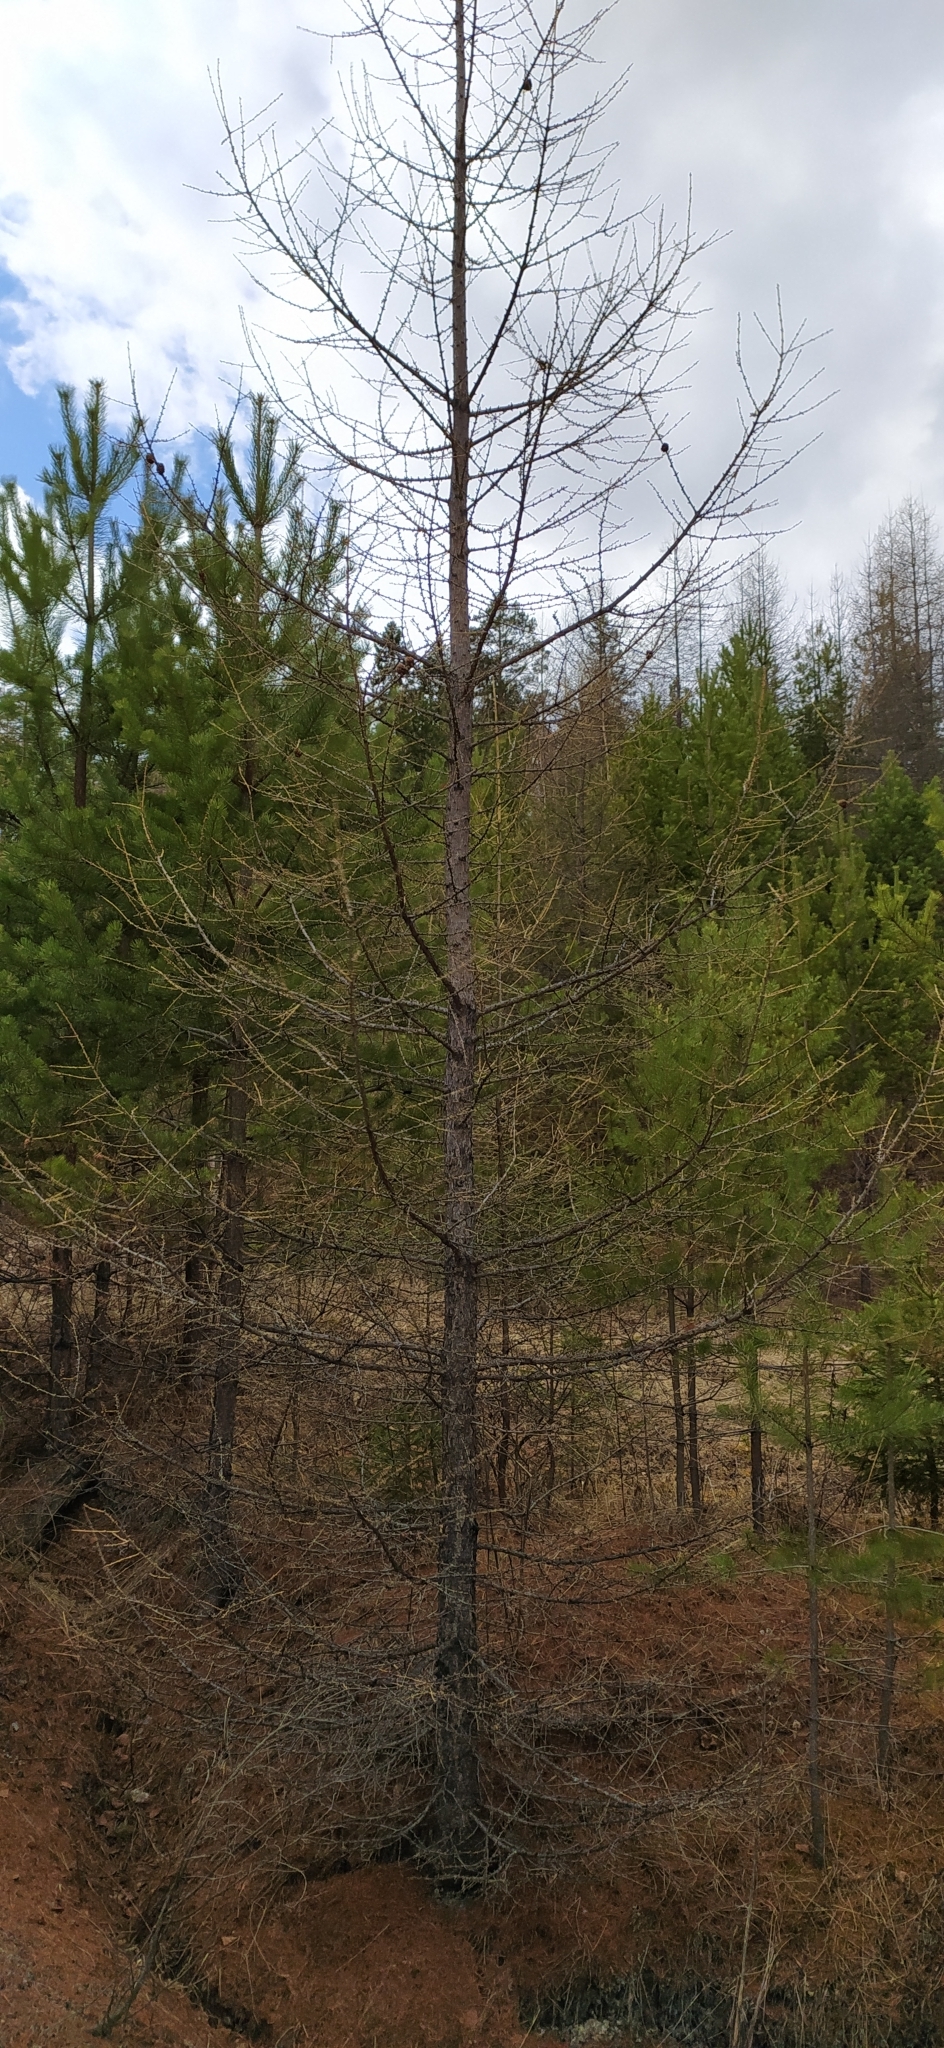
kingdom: Plantae
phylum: Tracheophyta
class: Pinopsida
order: Pinales
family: Pinaceae
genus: Larix
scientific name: Larix sibirica
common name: Siberian larch
